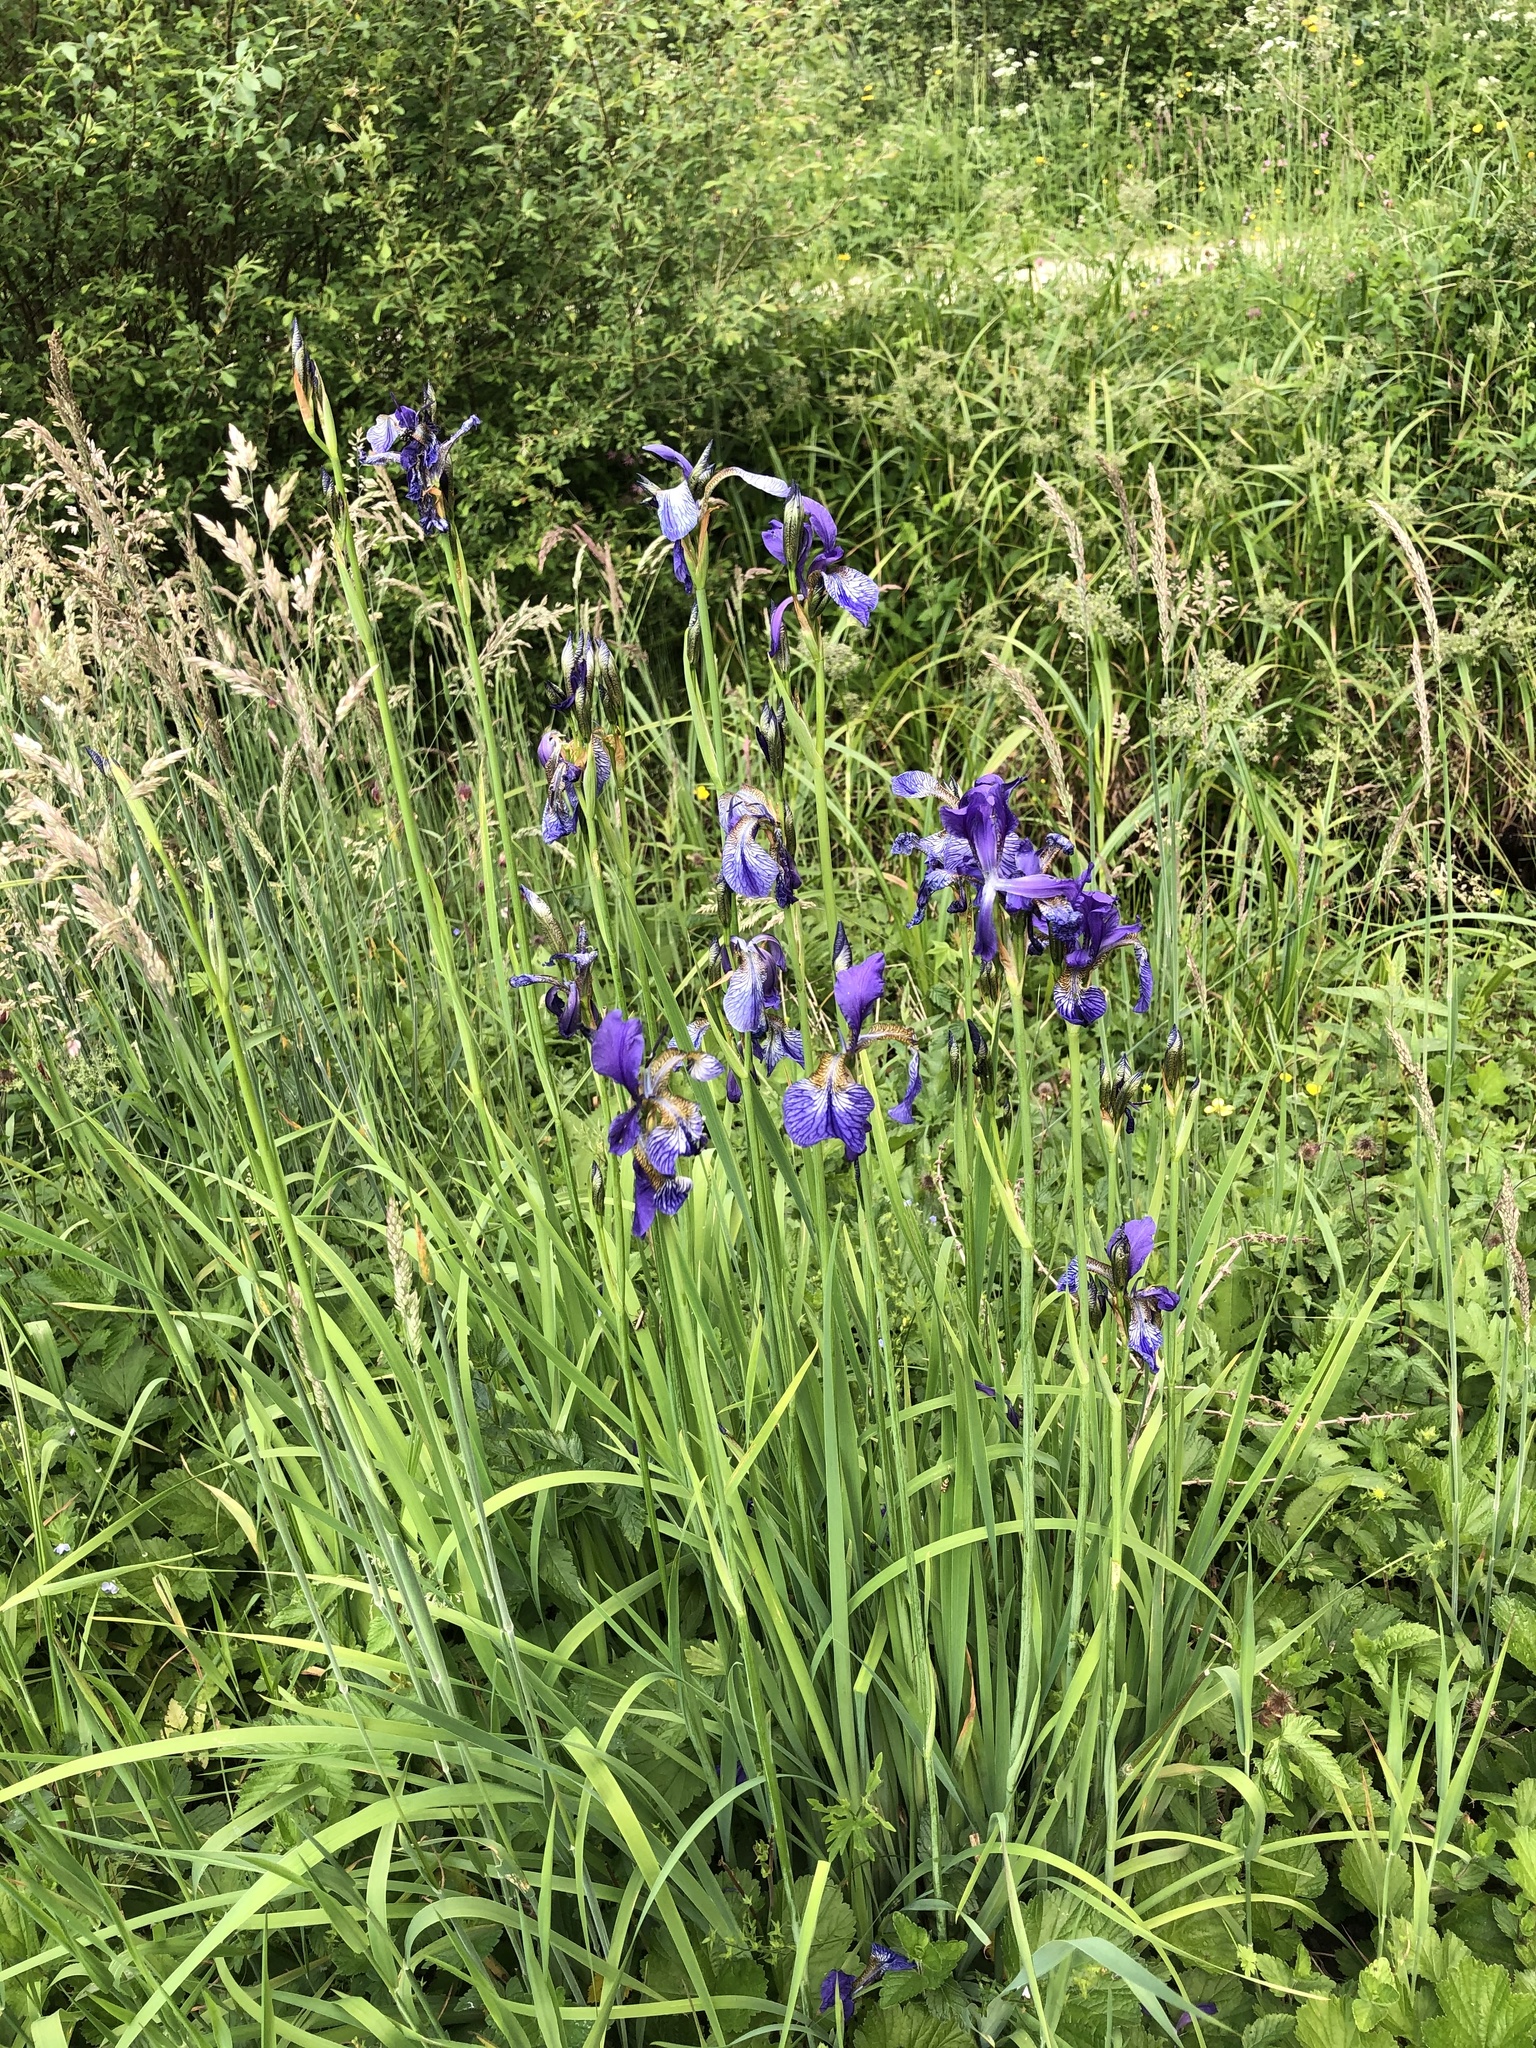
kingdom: Plantae
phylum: Tracheophyta
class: Liliopsida
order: Asparagales
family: Iridaceae
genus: Iris
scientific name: Iris sibirica
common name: Siberian iris
